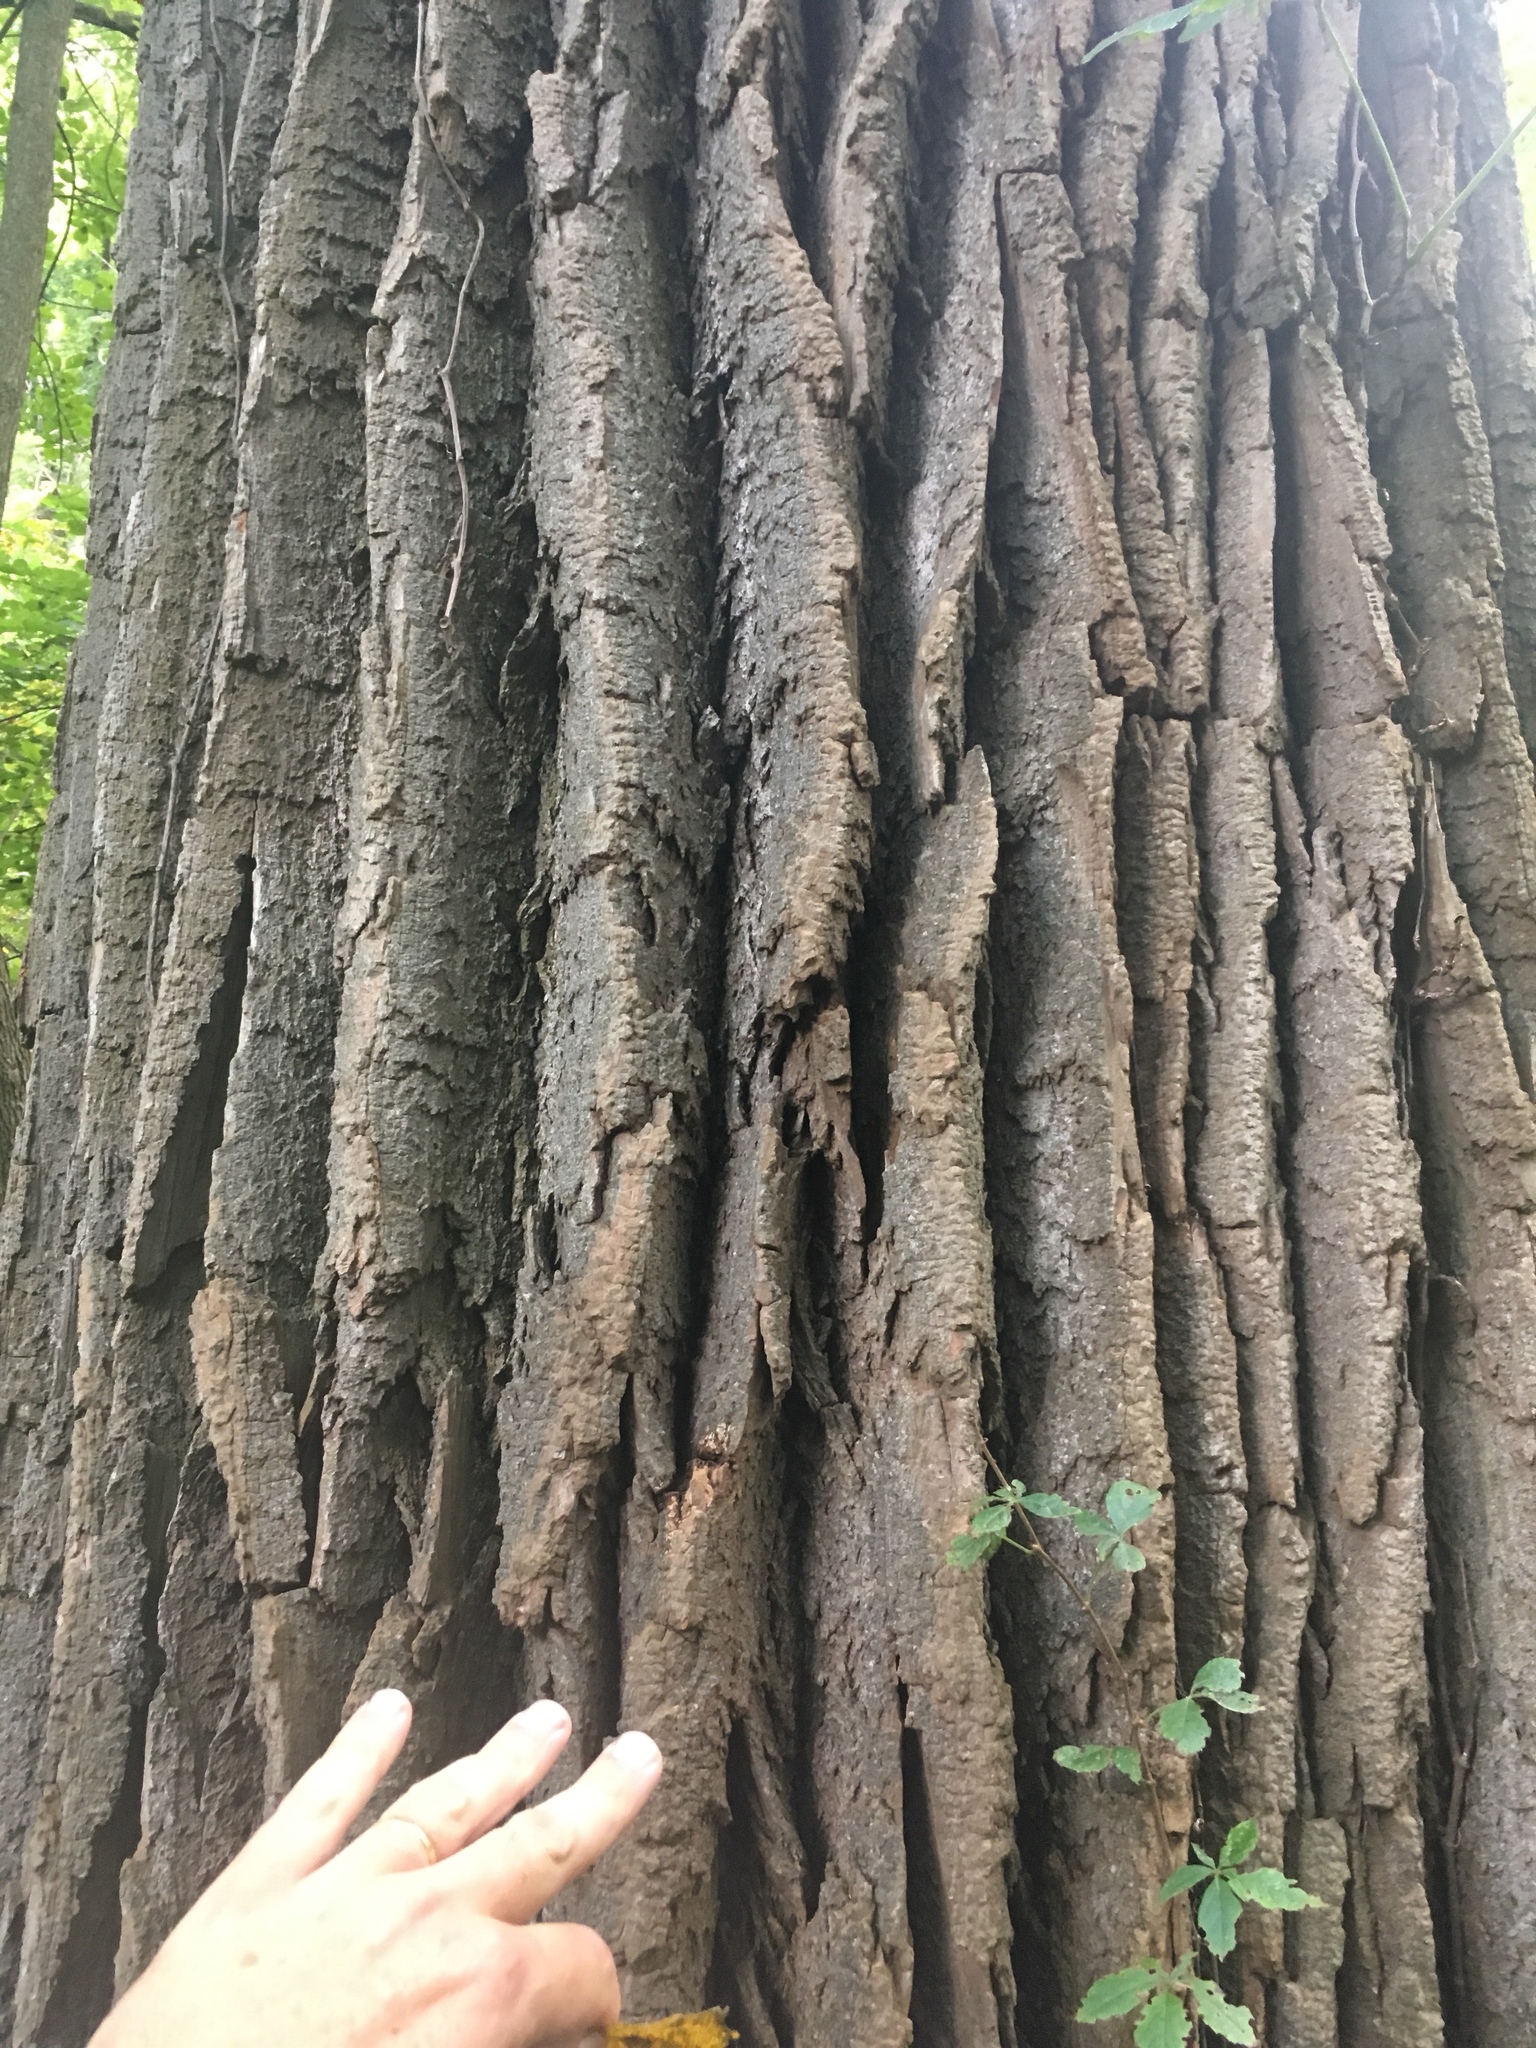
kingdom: Plantae
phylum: Tracheophyta
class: Magnoliopsida
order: Malpighiales
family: Salicaceae
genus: Populus
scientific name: Populus deltoides
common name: Eastern cottonwood
